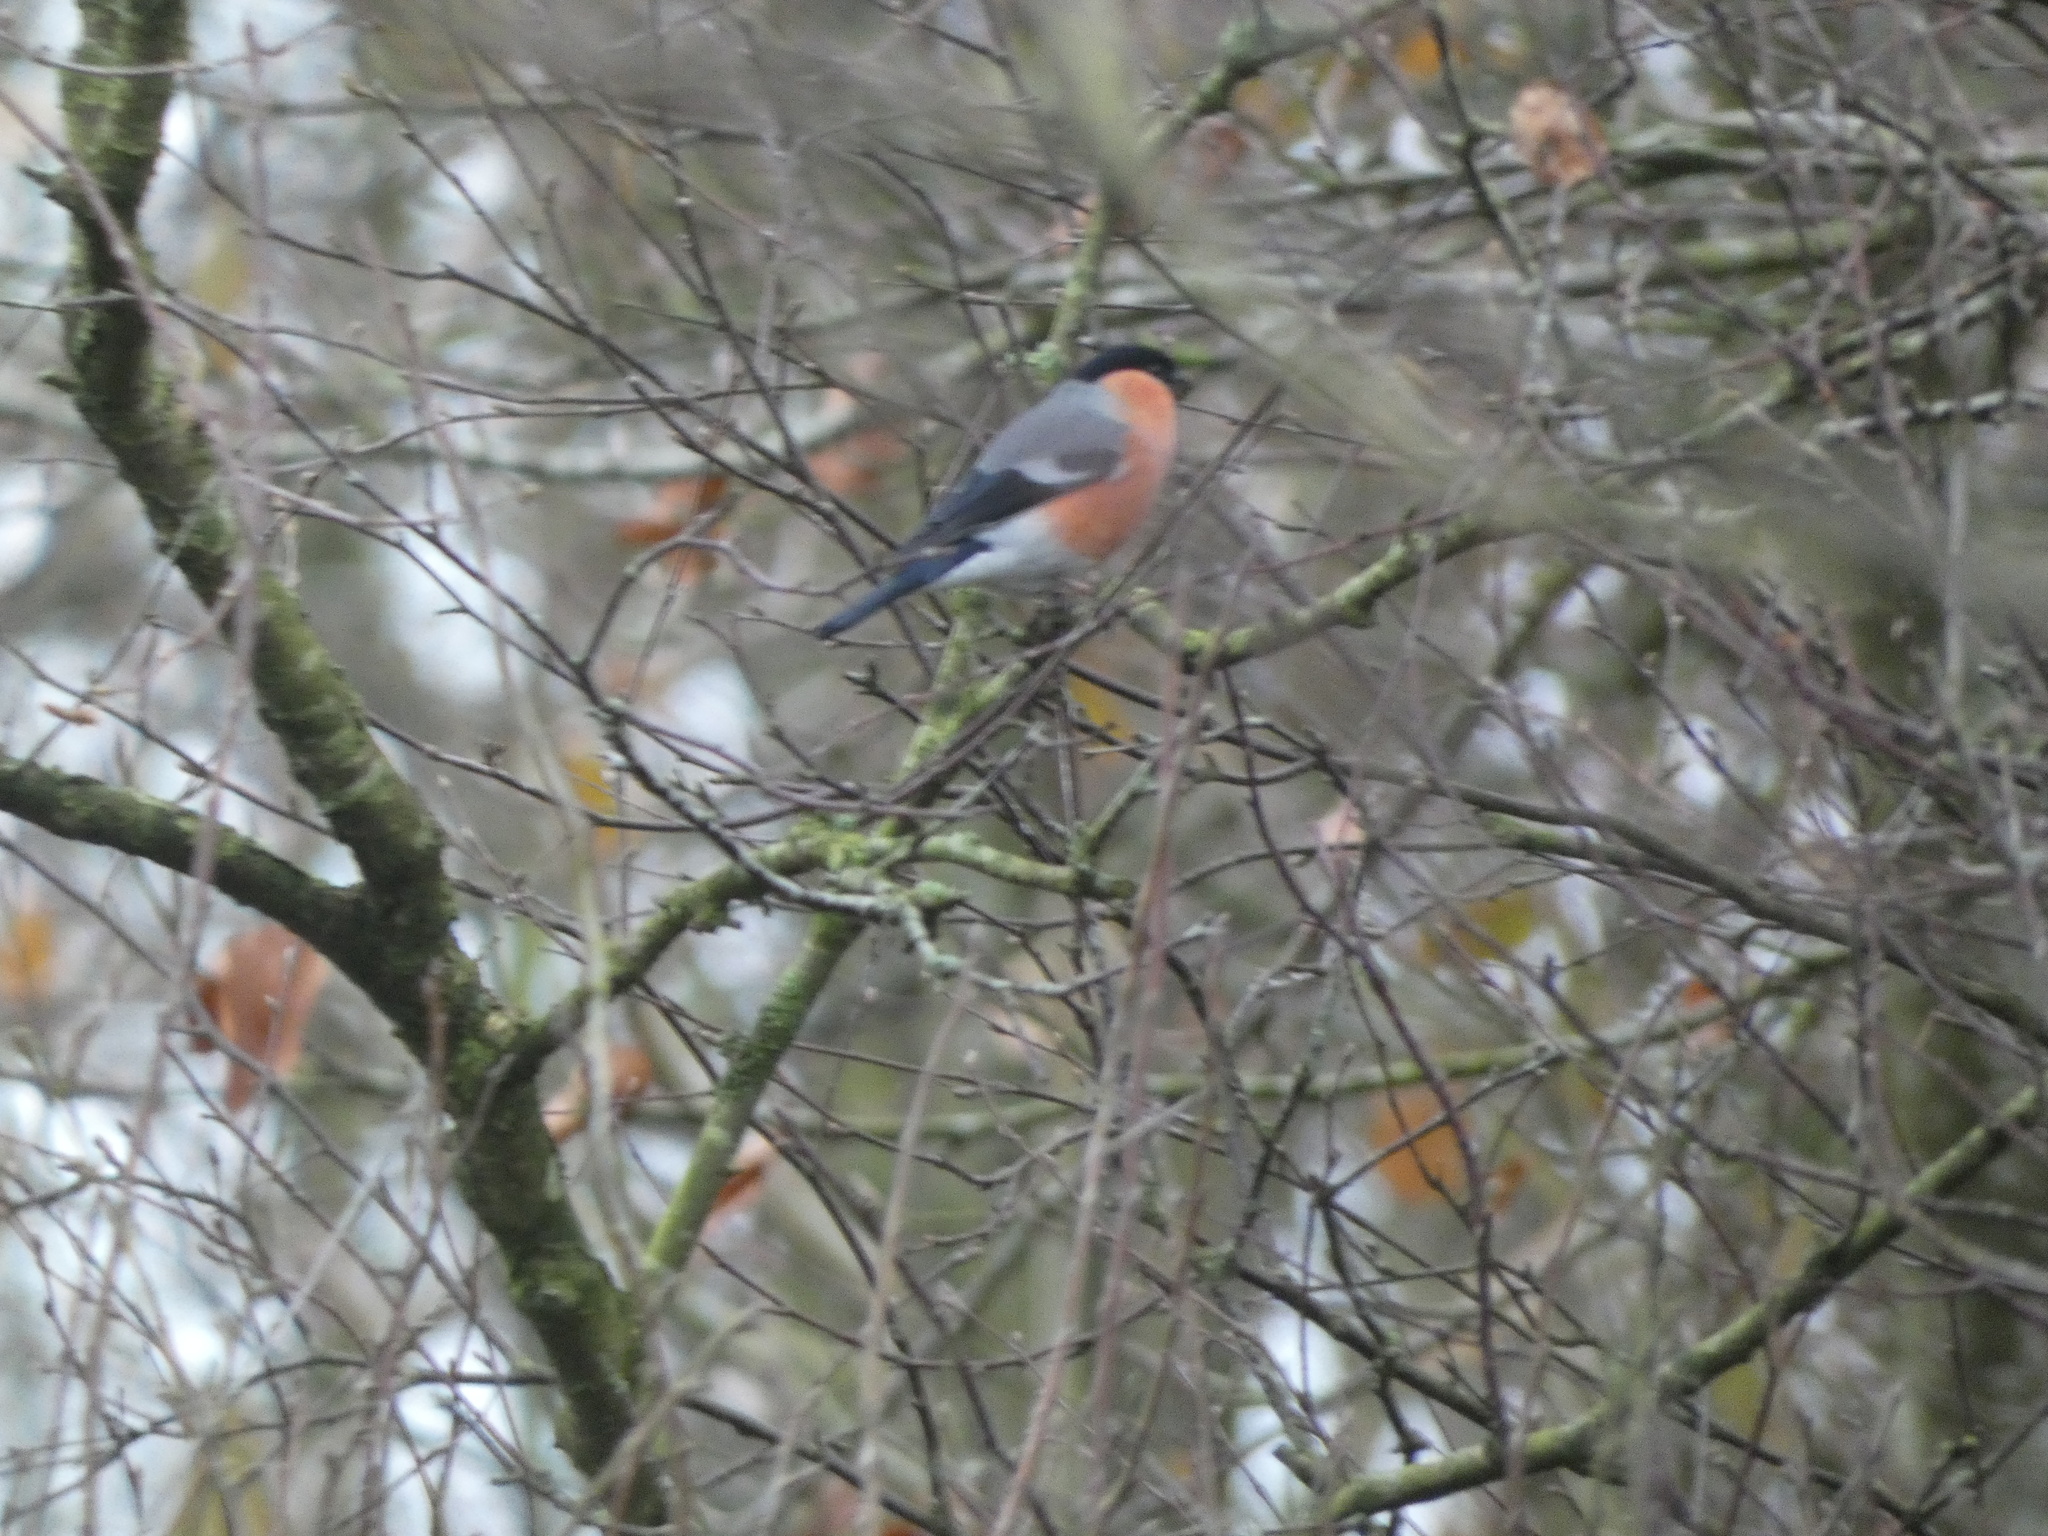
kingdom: Animalia
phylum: Chordata
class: Aves
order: Passeriformes
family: Fringillidae
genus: Pyrrhula
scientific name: Pyrrhula pyrrhula
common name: Eurasian bullfinch
